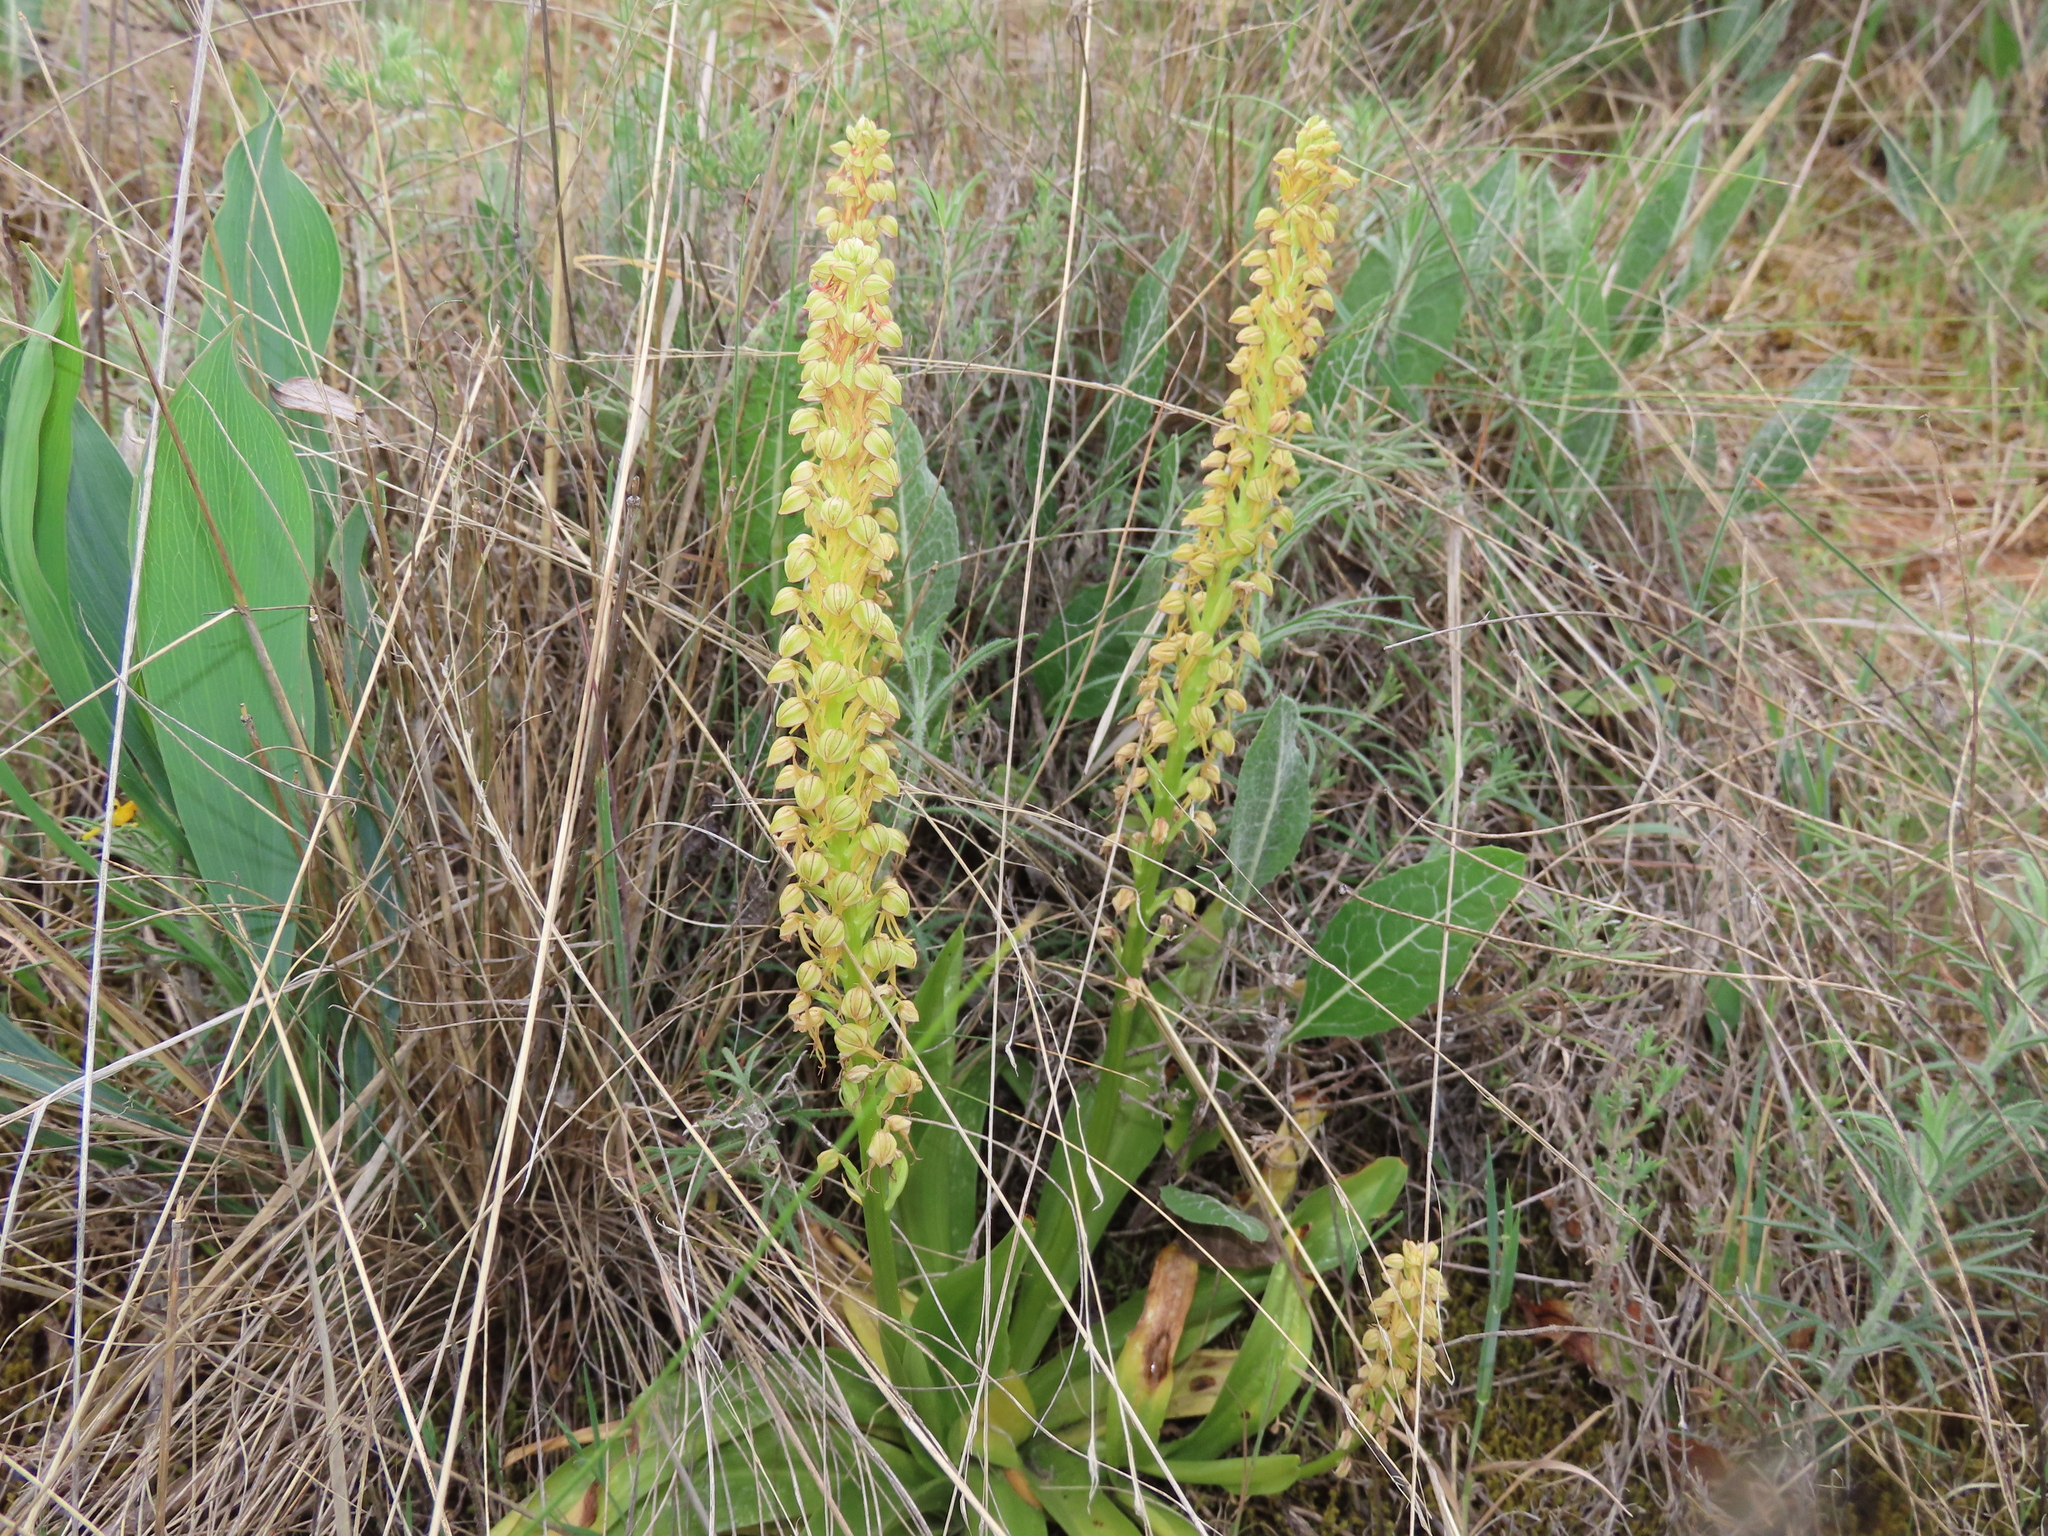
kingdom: Plantae
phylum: Tracheophyta
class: Liliopsida
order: Asparagales
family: Orchidaceae
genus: Orchis
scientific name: Orchis anthropophora
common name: Man orchid
